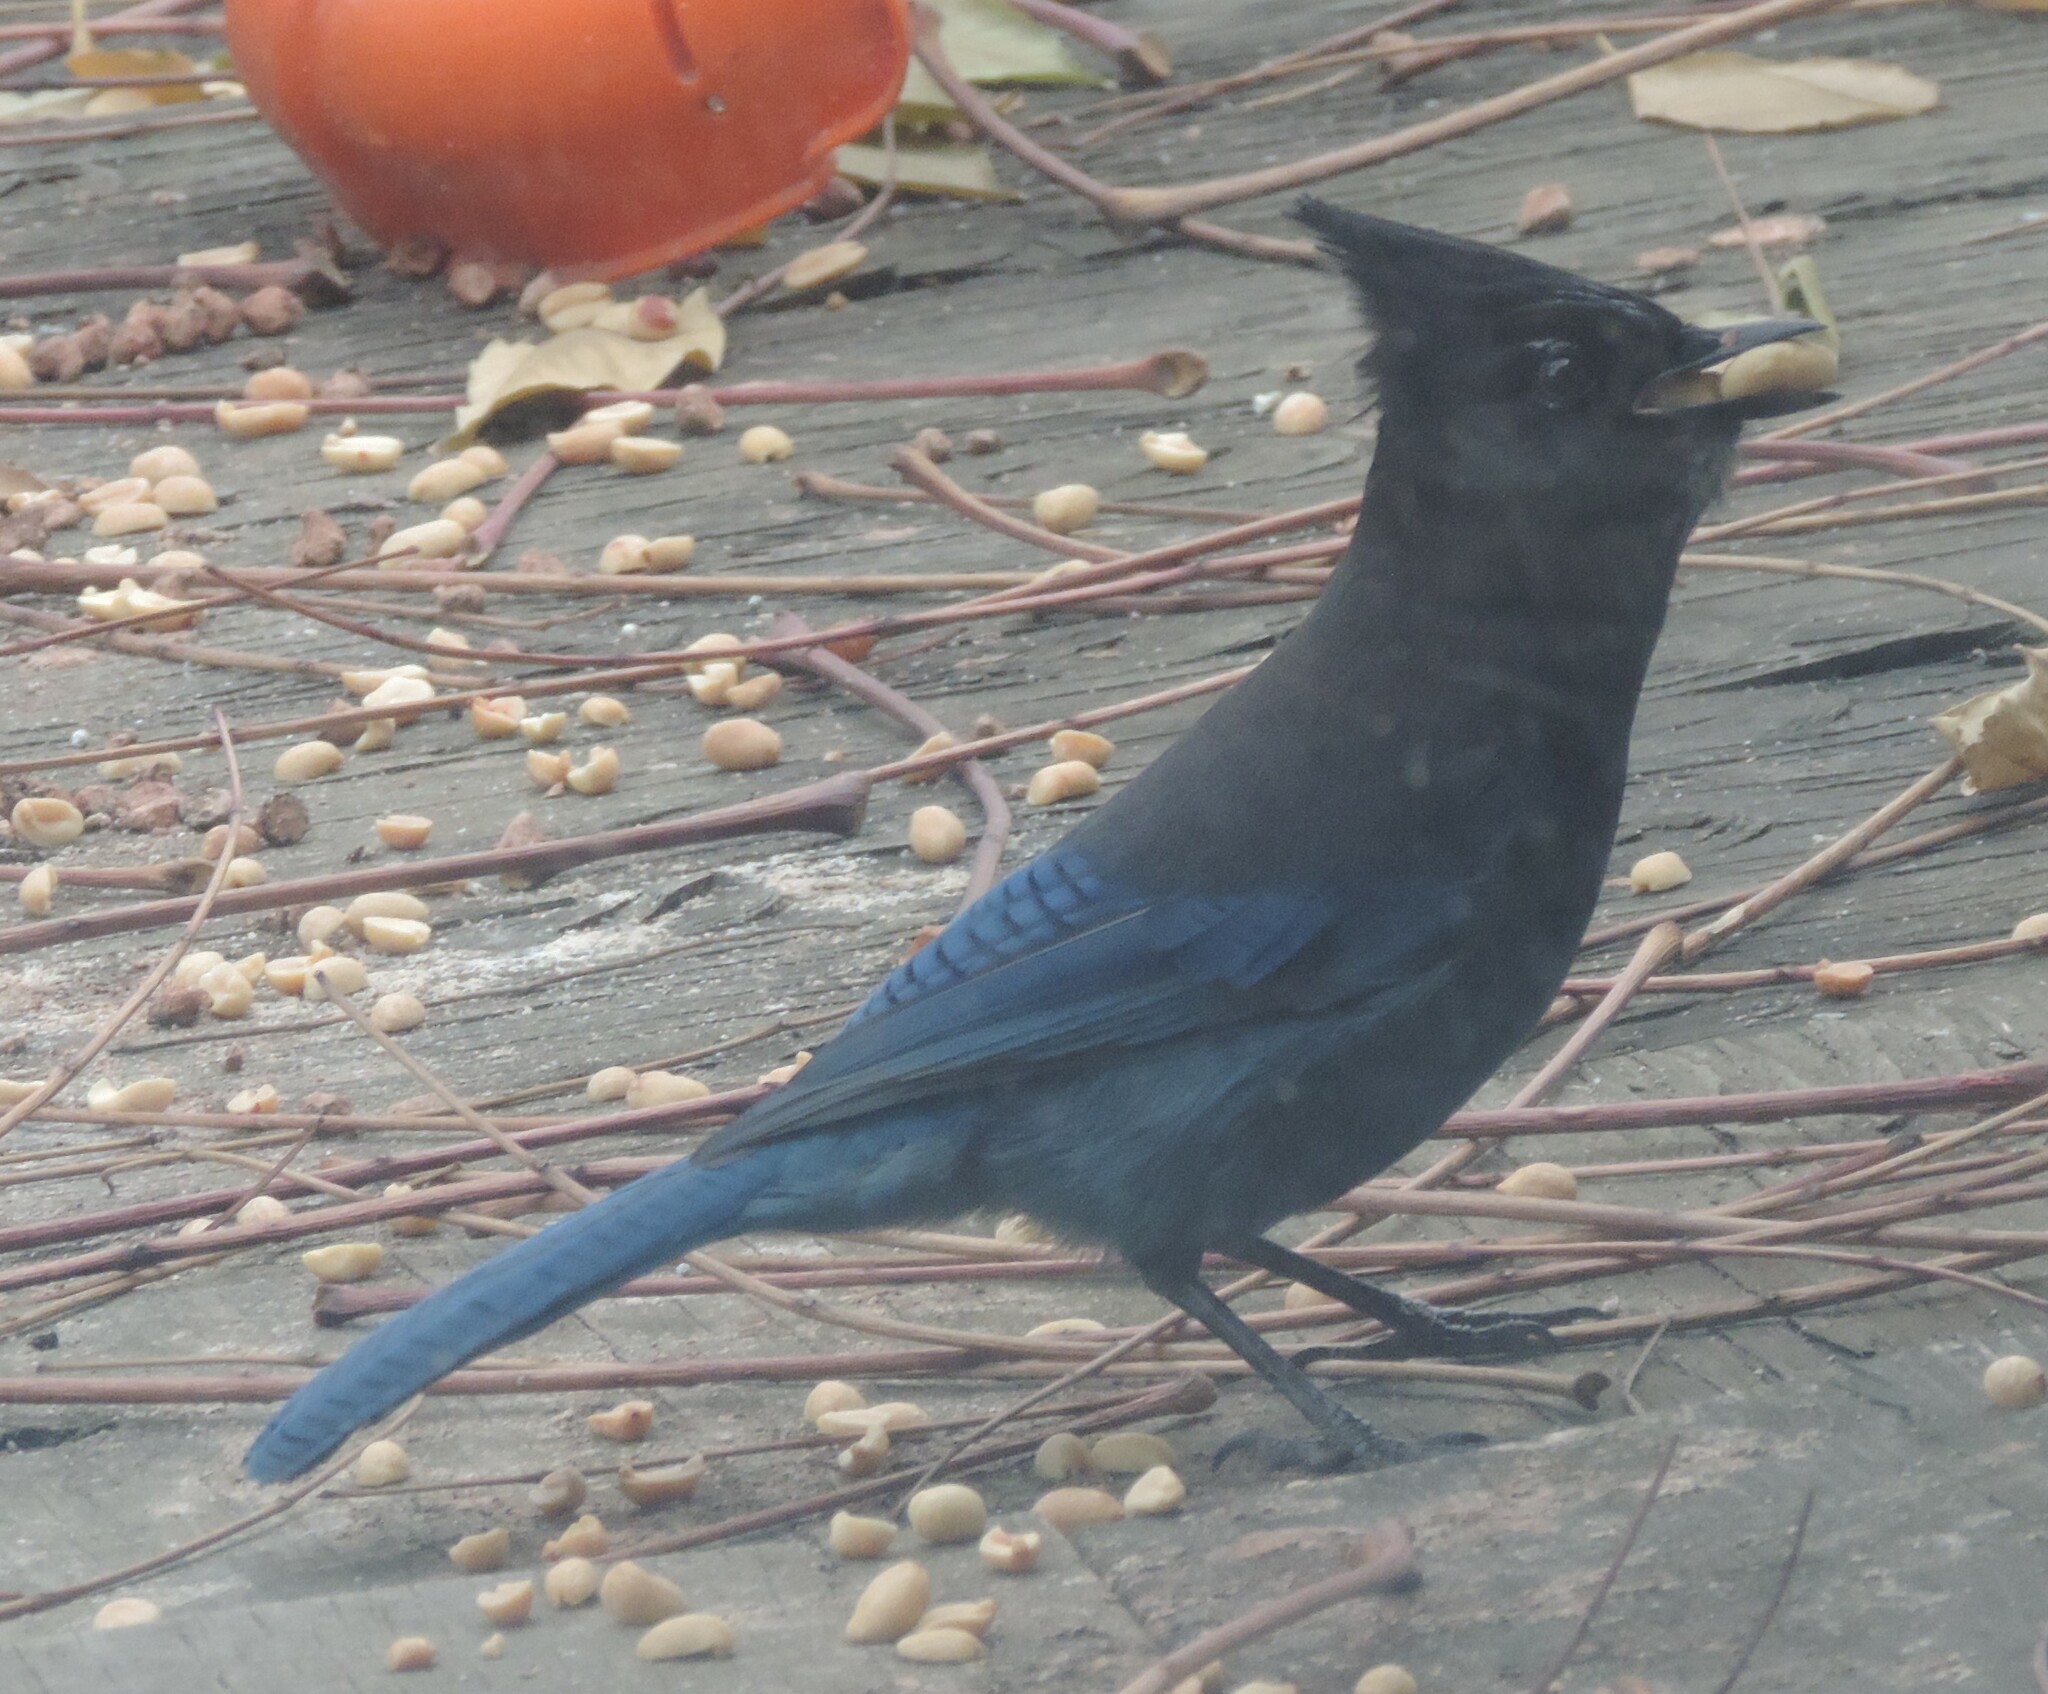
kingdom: Animalia
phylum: Chordata
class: Aves
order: Passeriformes
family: Corvidae
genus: Cyanocitta
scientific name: Cyanocitta stelleri
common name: Steller's jay
